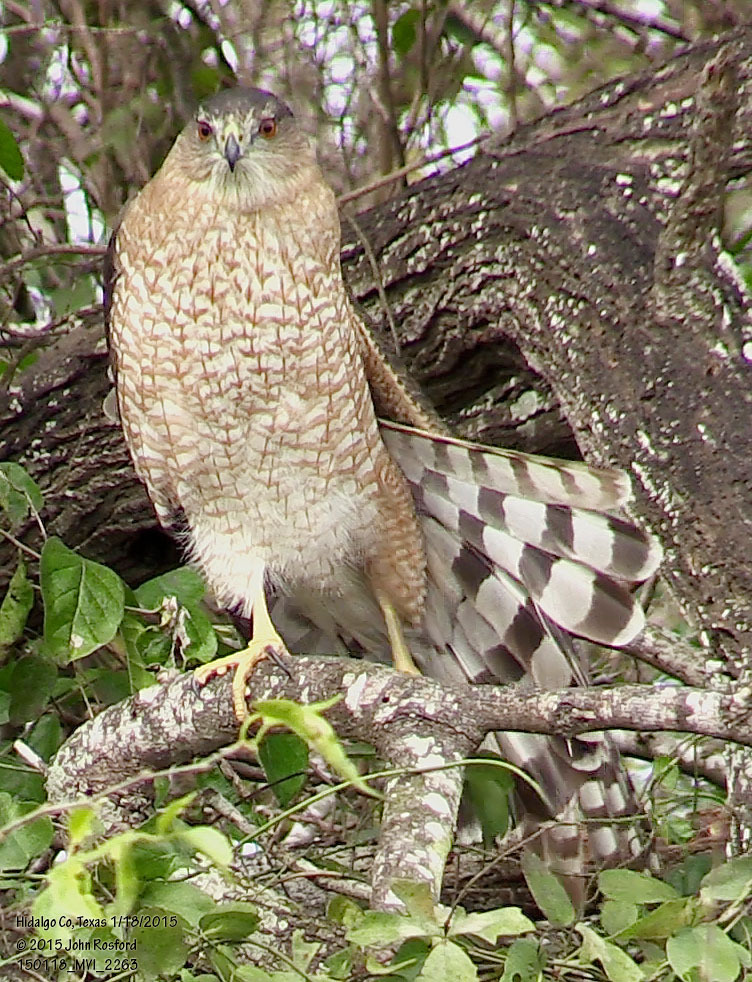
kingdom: Animalia
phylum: Chordata
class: Aves
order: Accipitriformes
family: Accipitridae
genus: Accipiter
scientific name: Accipiter cooperii
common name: Cooper's hawk
